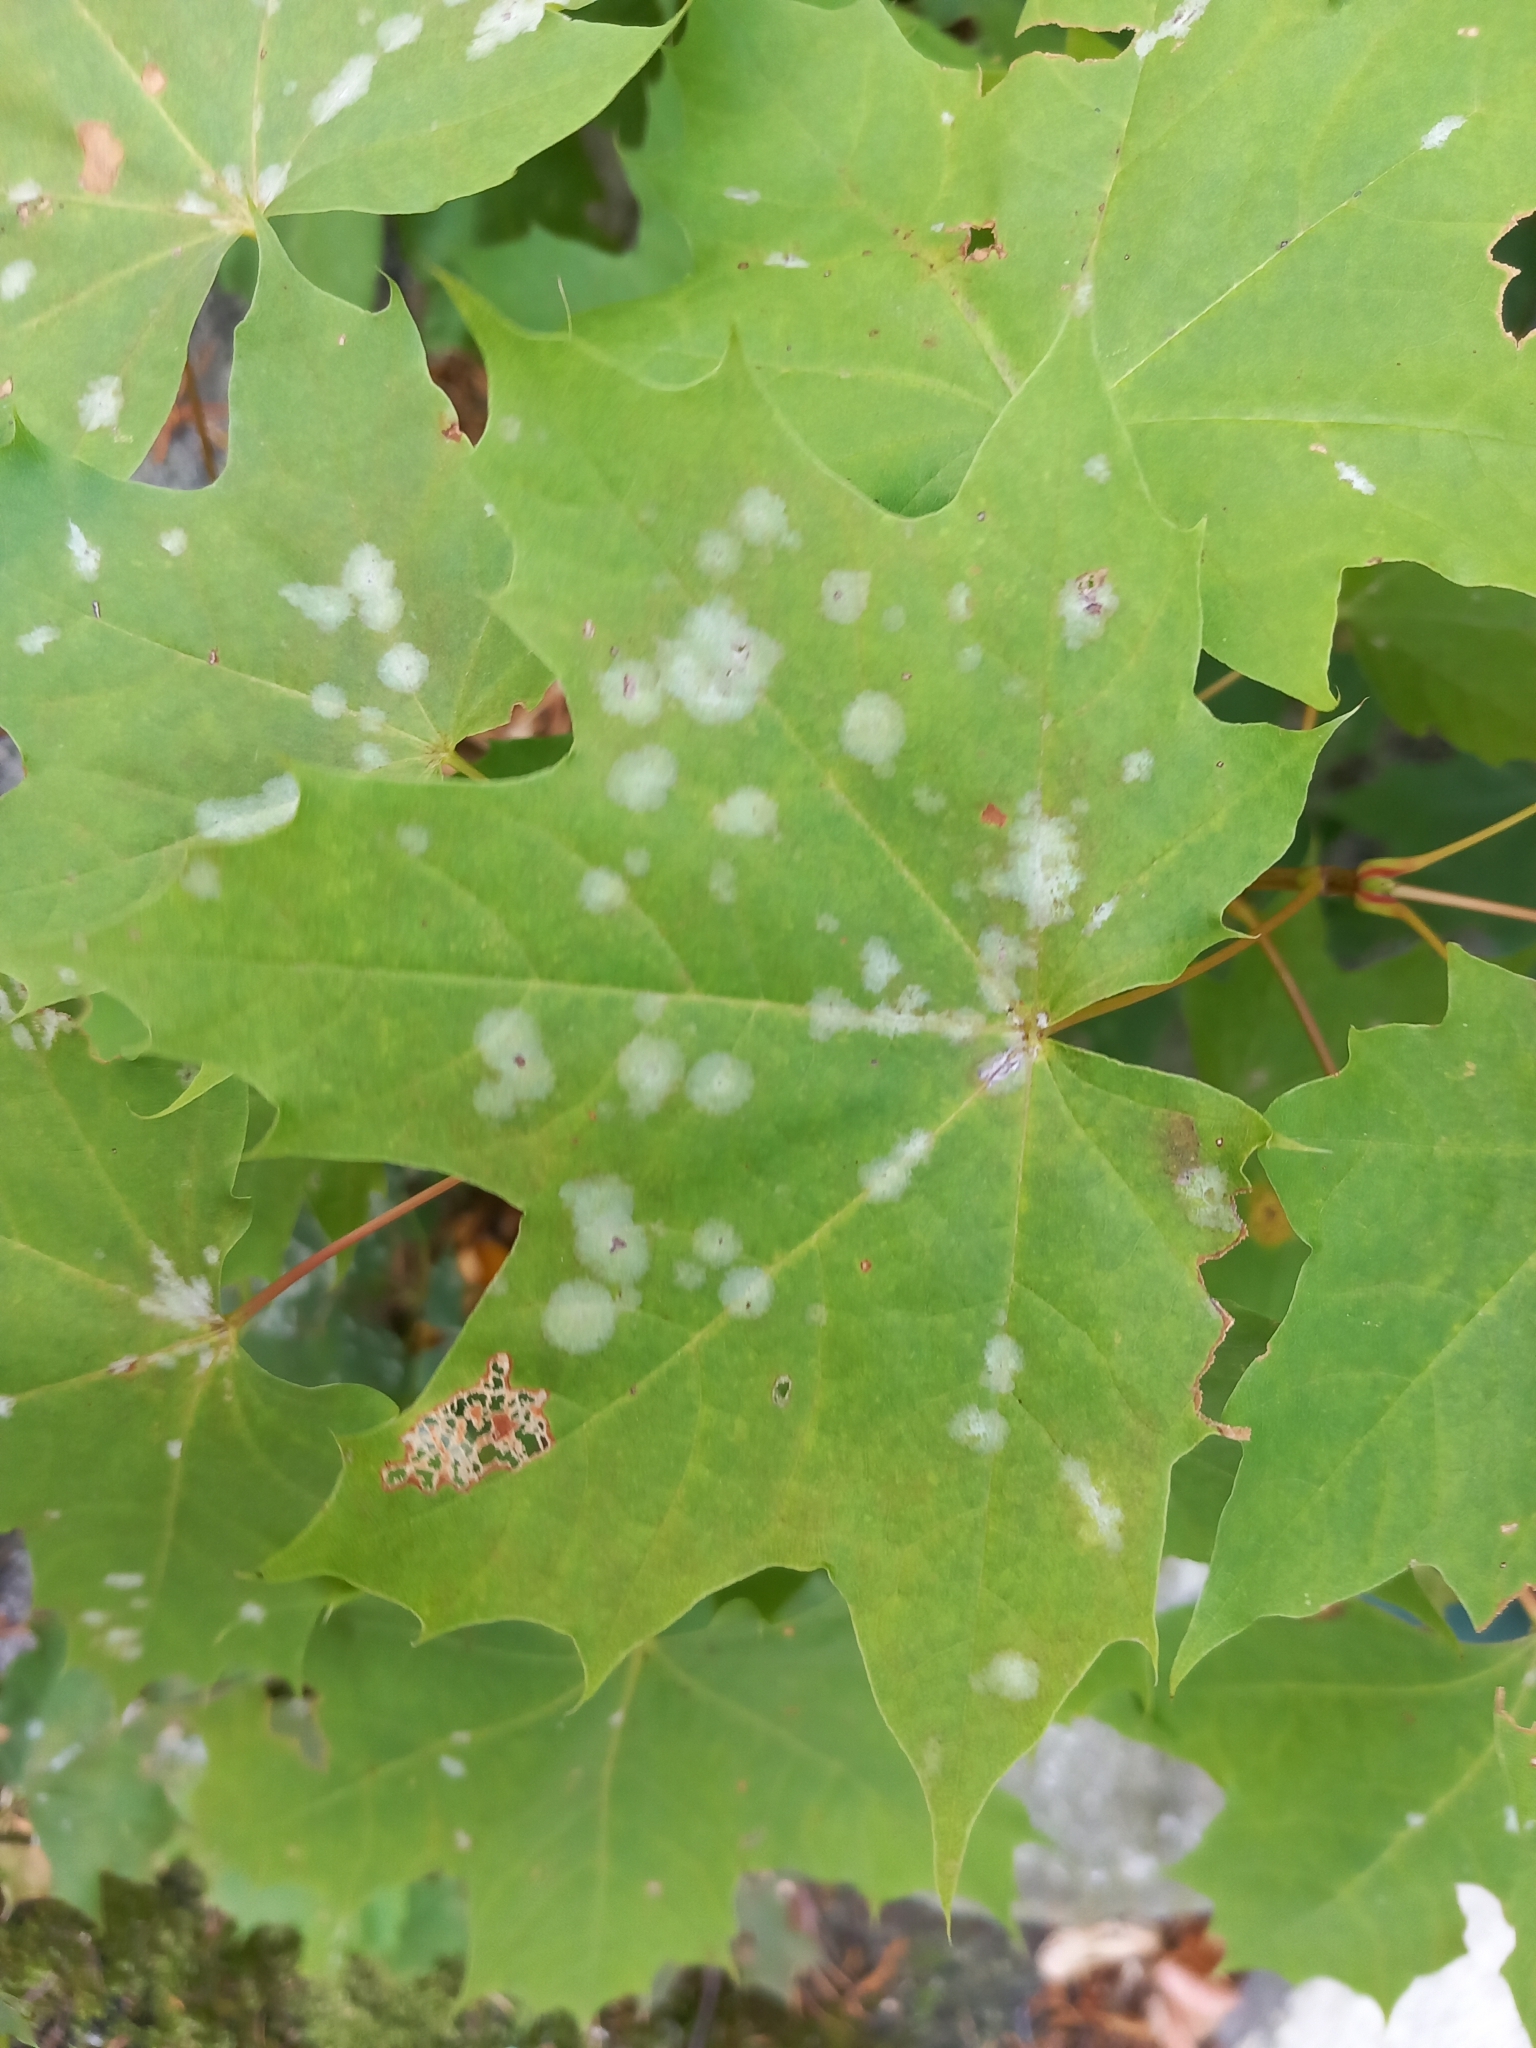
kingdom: Fungi
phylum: Ascomycota
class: Leotiomycetes
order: Helotiales
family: Erysiphaceae
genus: Sawadaea
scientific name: Sawadaea tulasnei
